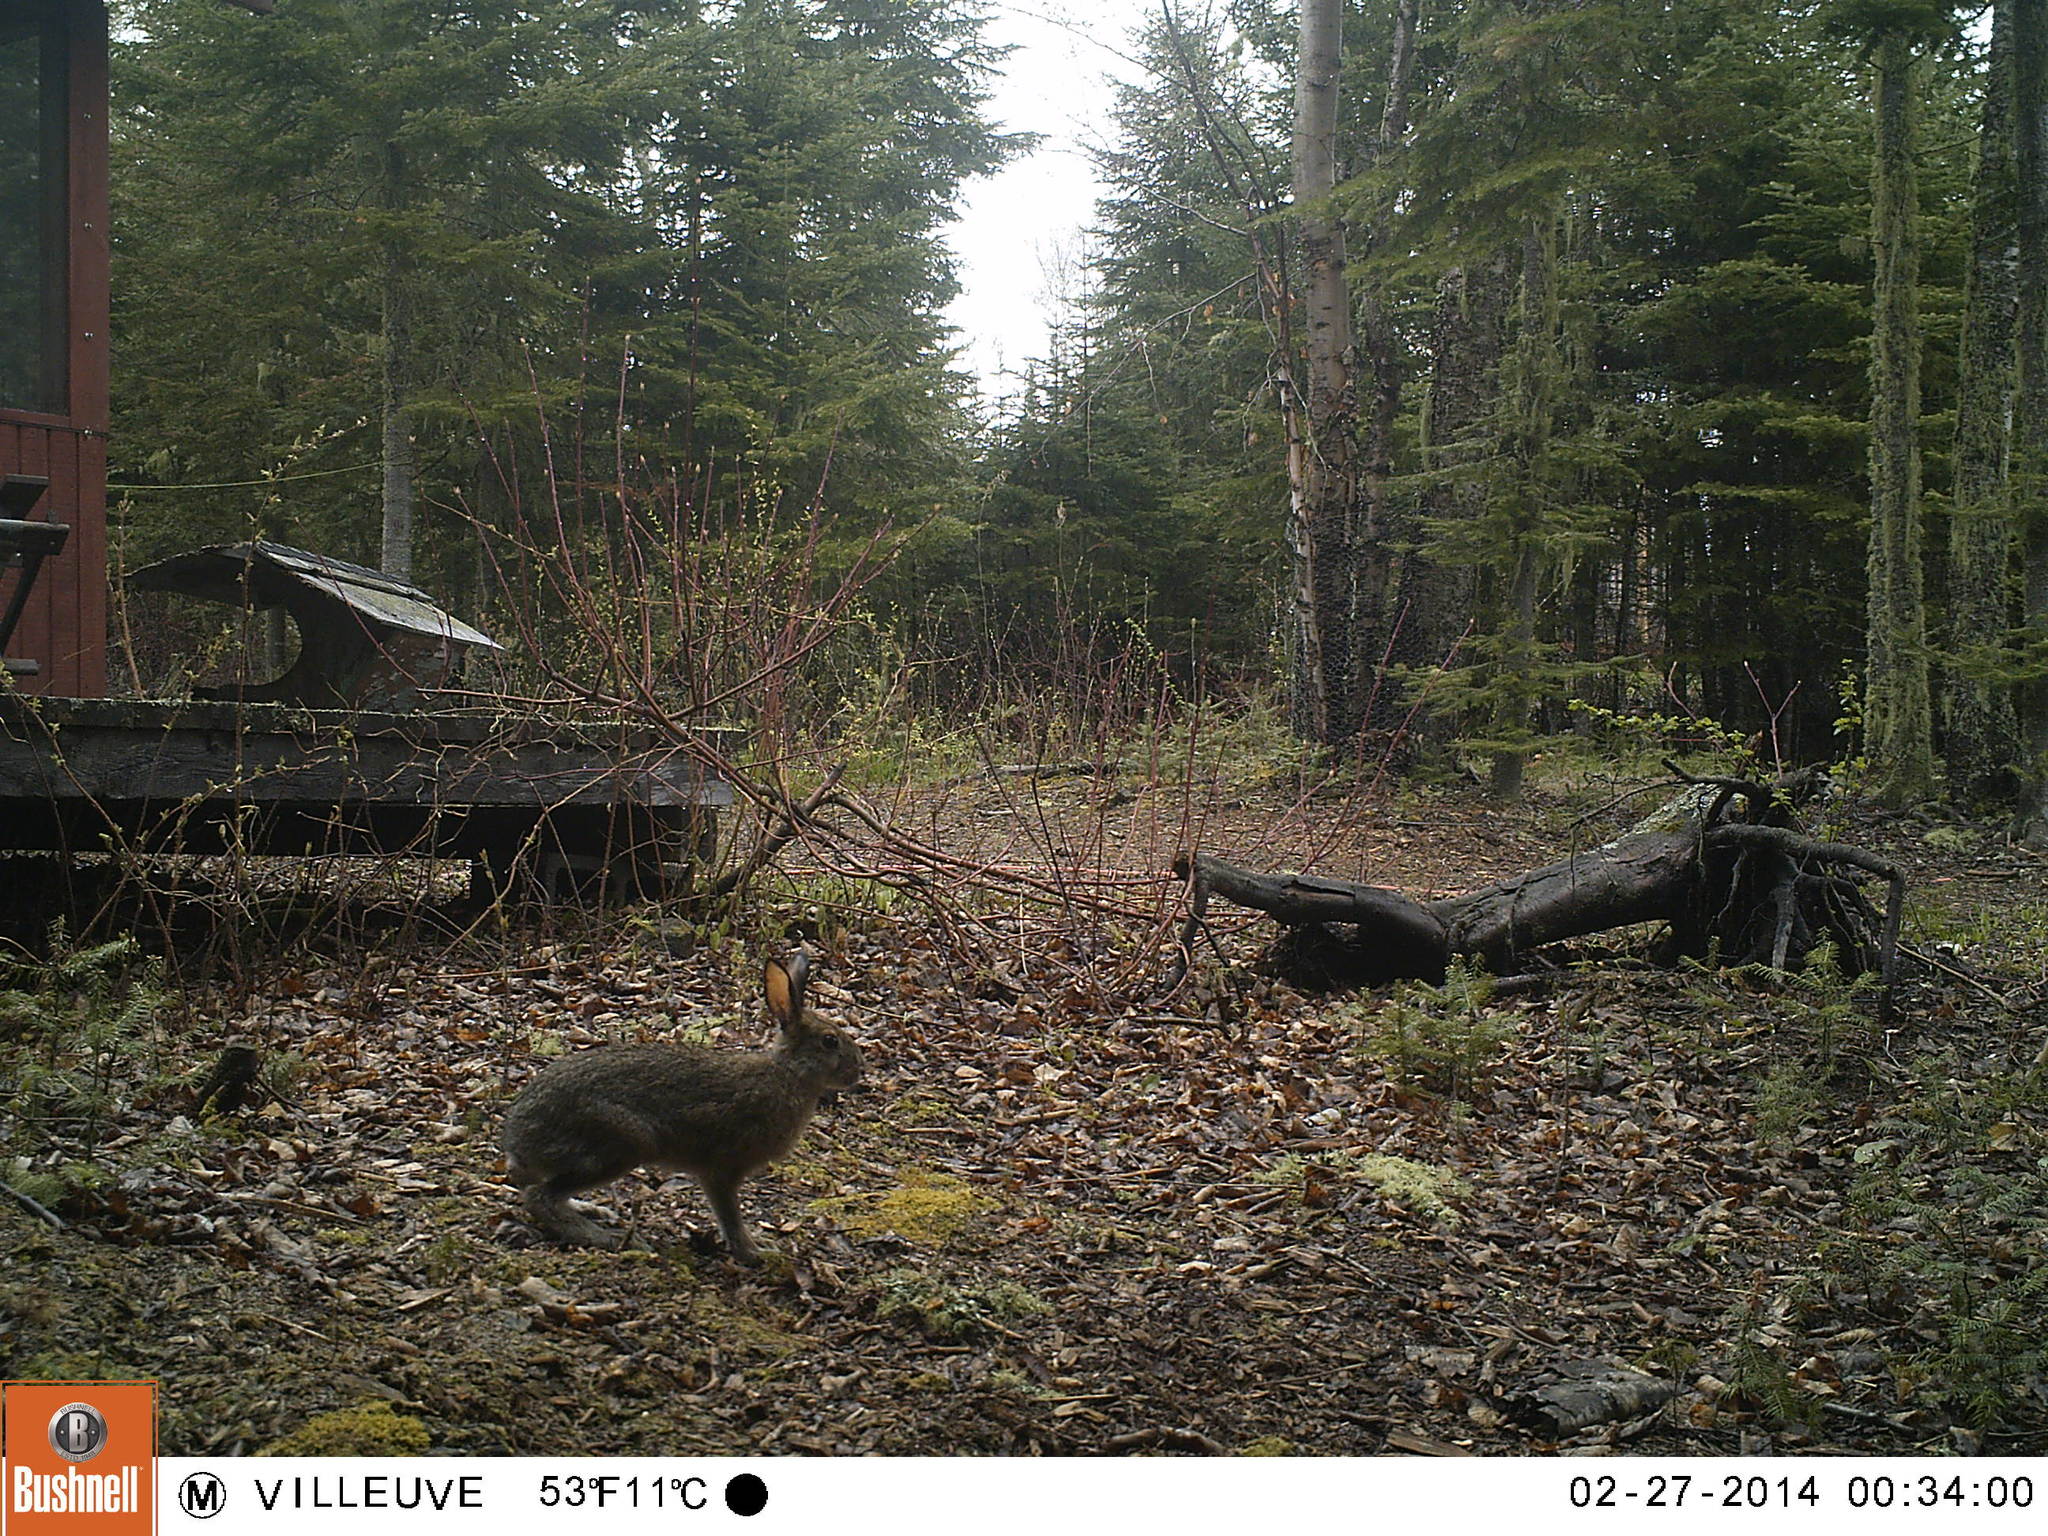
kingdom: Animalia
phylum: Chordata
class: Mammalia
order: Lagomorpha
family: Leporidae
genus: Lepus
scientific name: Lepus americanus
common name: Snowshoe hare
